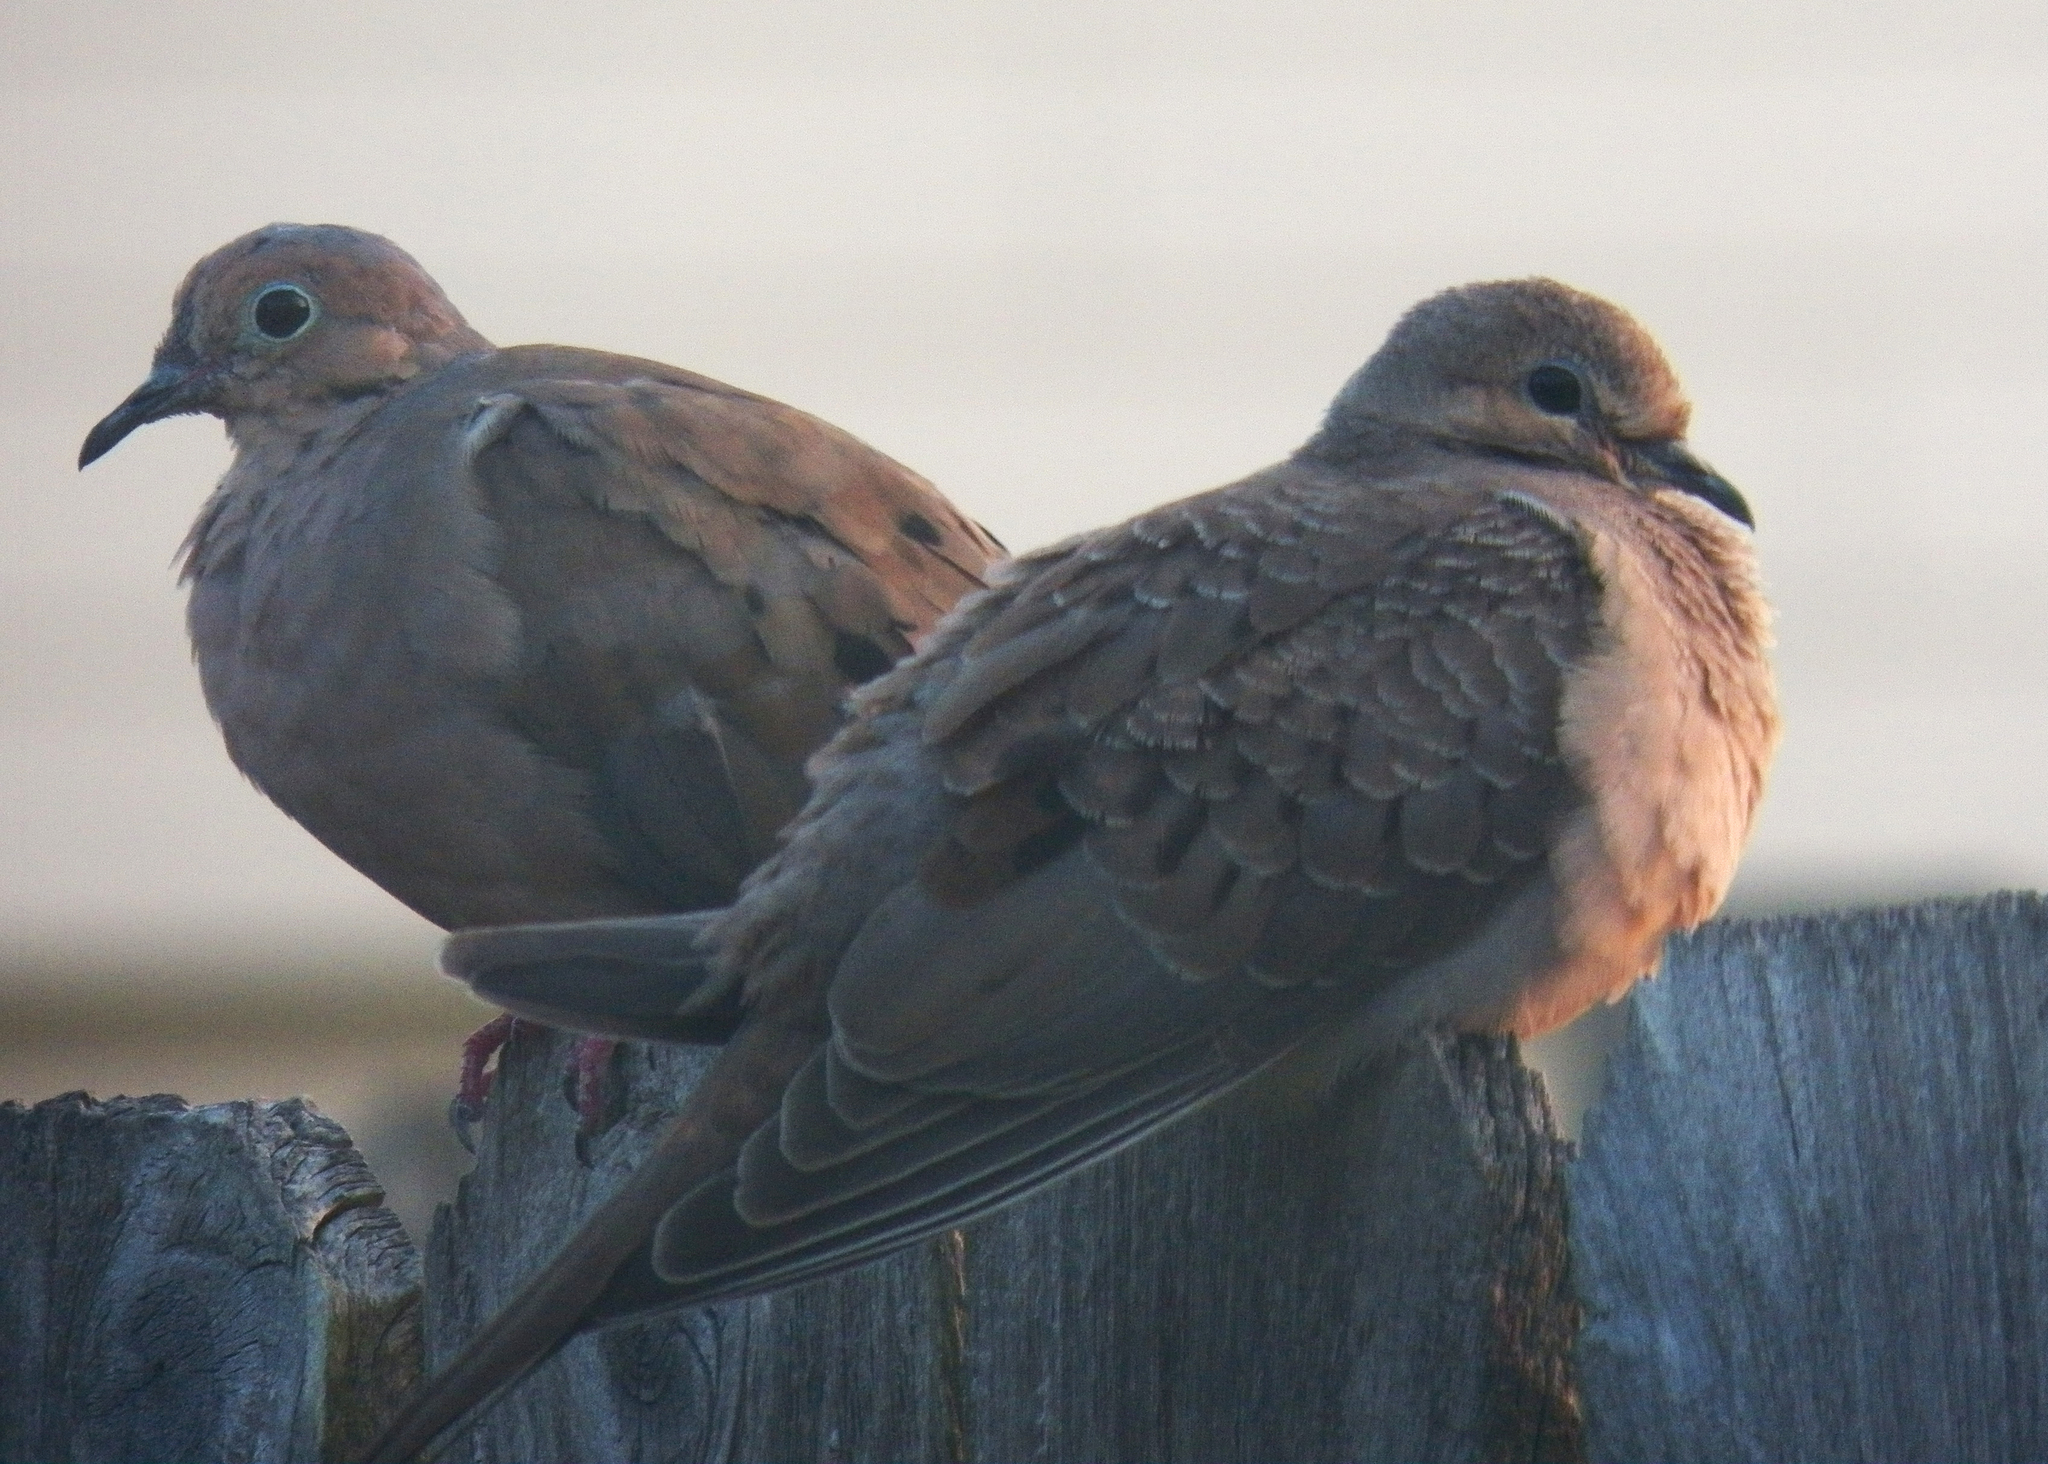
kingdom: Animalia
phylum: Chordata
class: Aves
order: Columbiformes
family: Columbidae
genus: Zenaida
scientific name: Zenaida macroura
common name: Mourning dove
